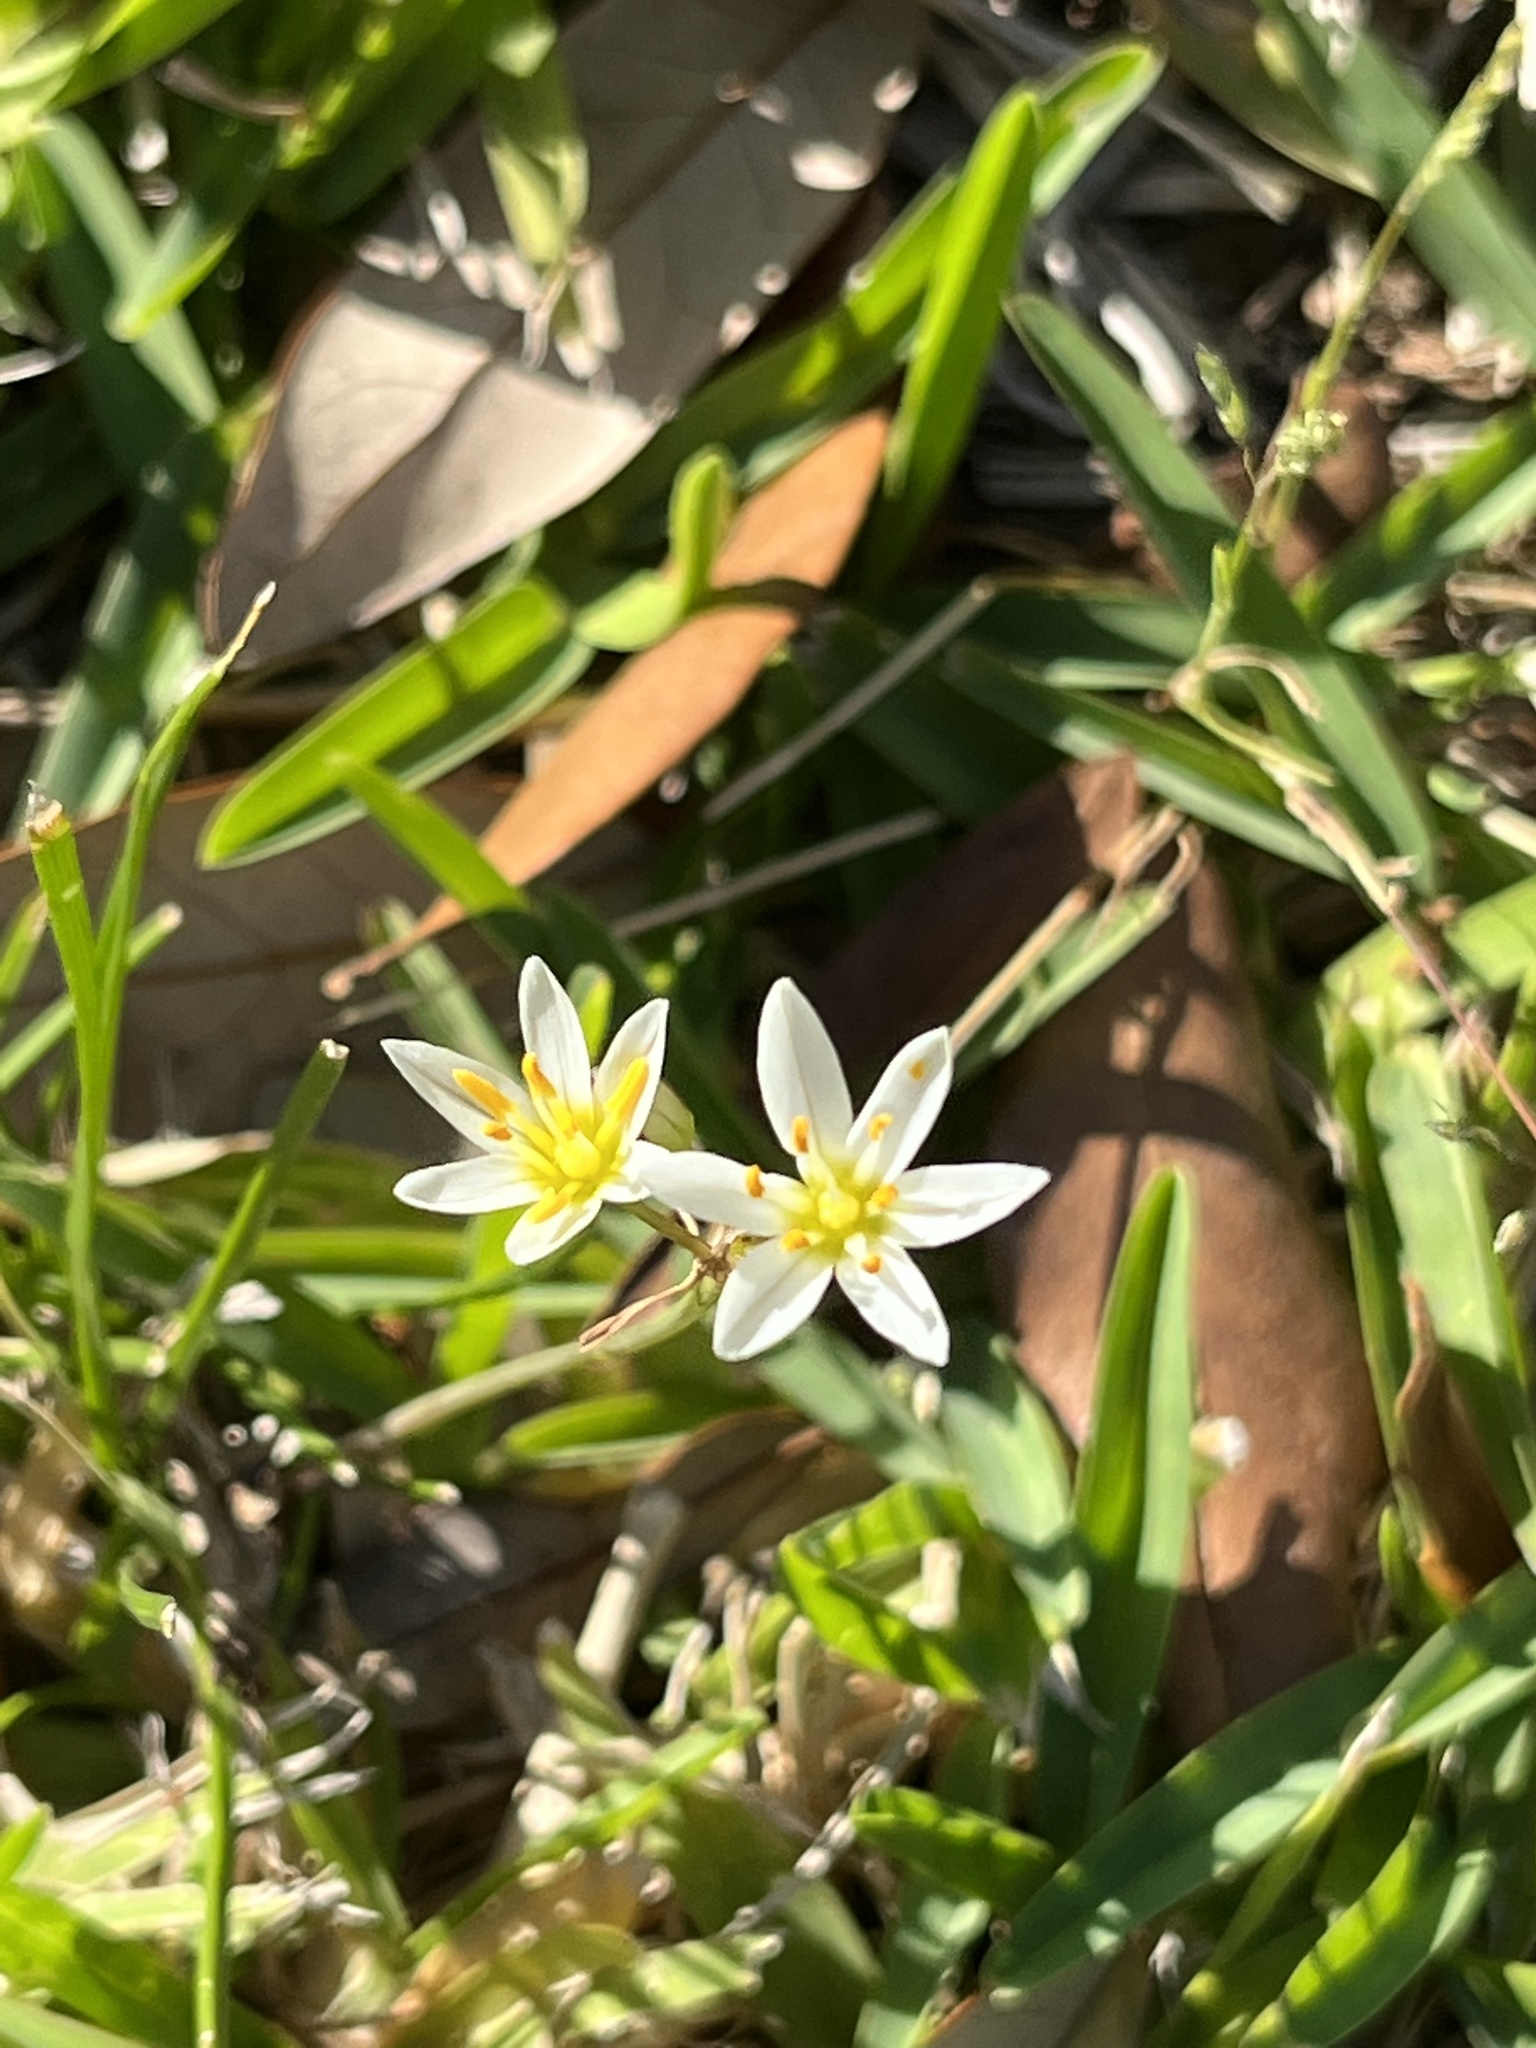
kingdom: Plantae
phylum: Tracheophyta
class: Liliopsida
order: Asparagales
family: Amaryllidaceae
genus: Nothoscordum
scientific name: Nothoscordum bivalve
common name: Crow-poison
